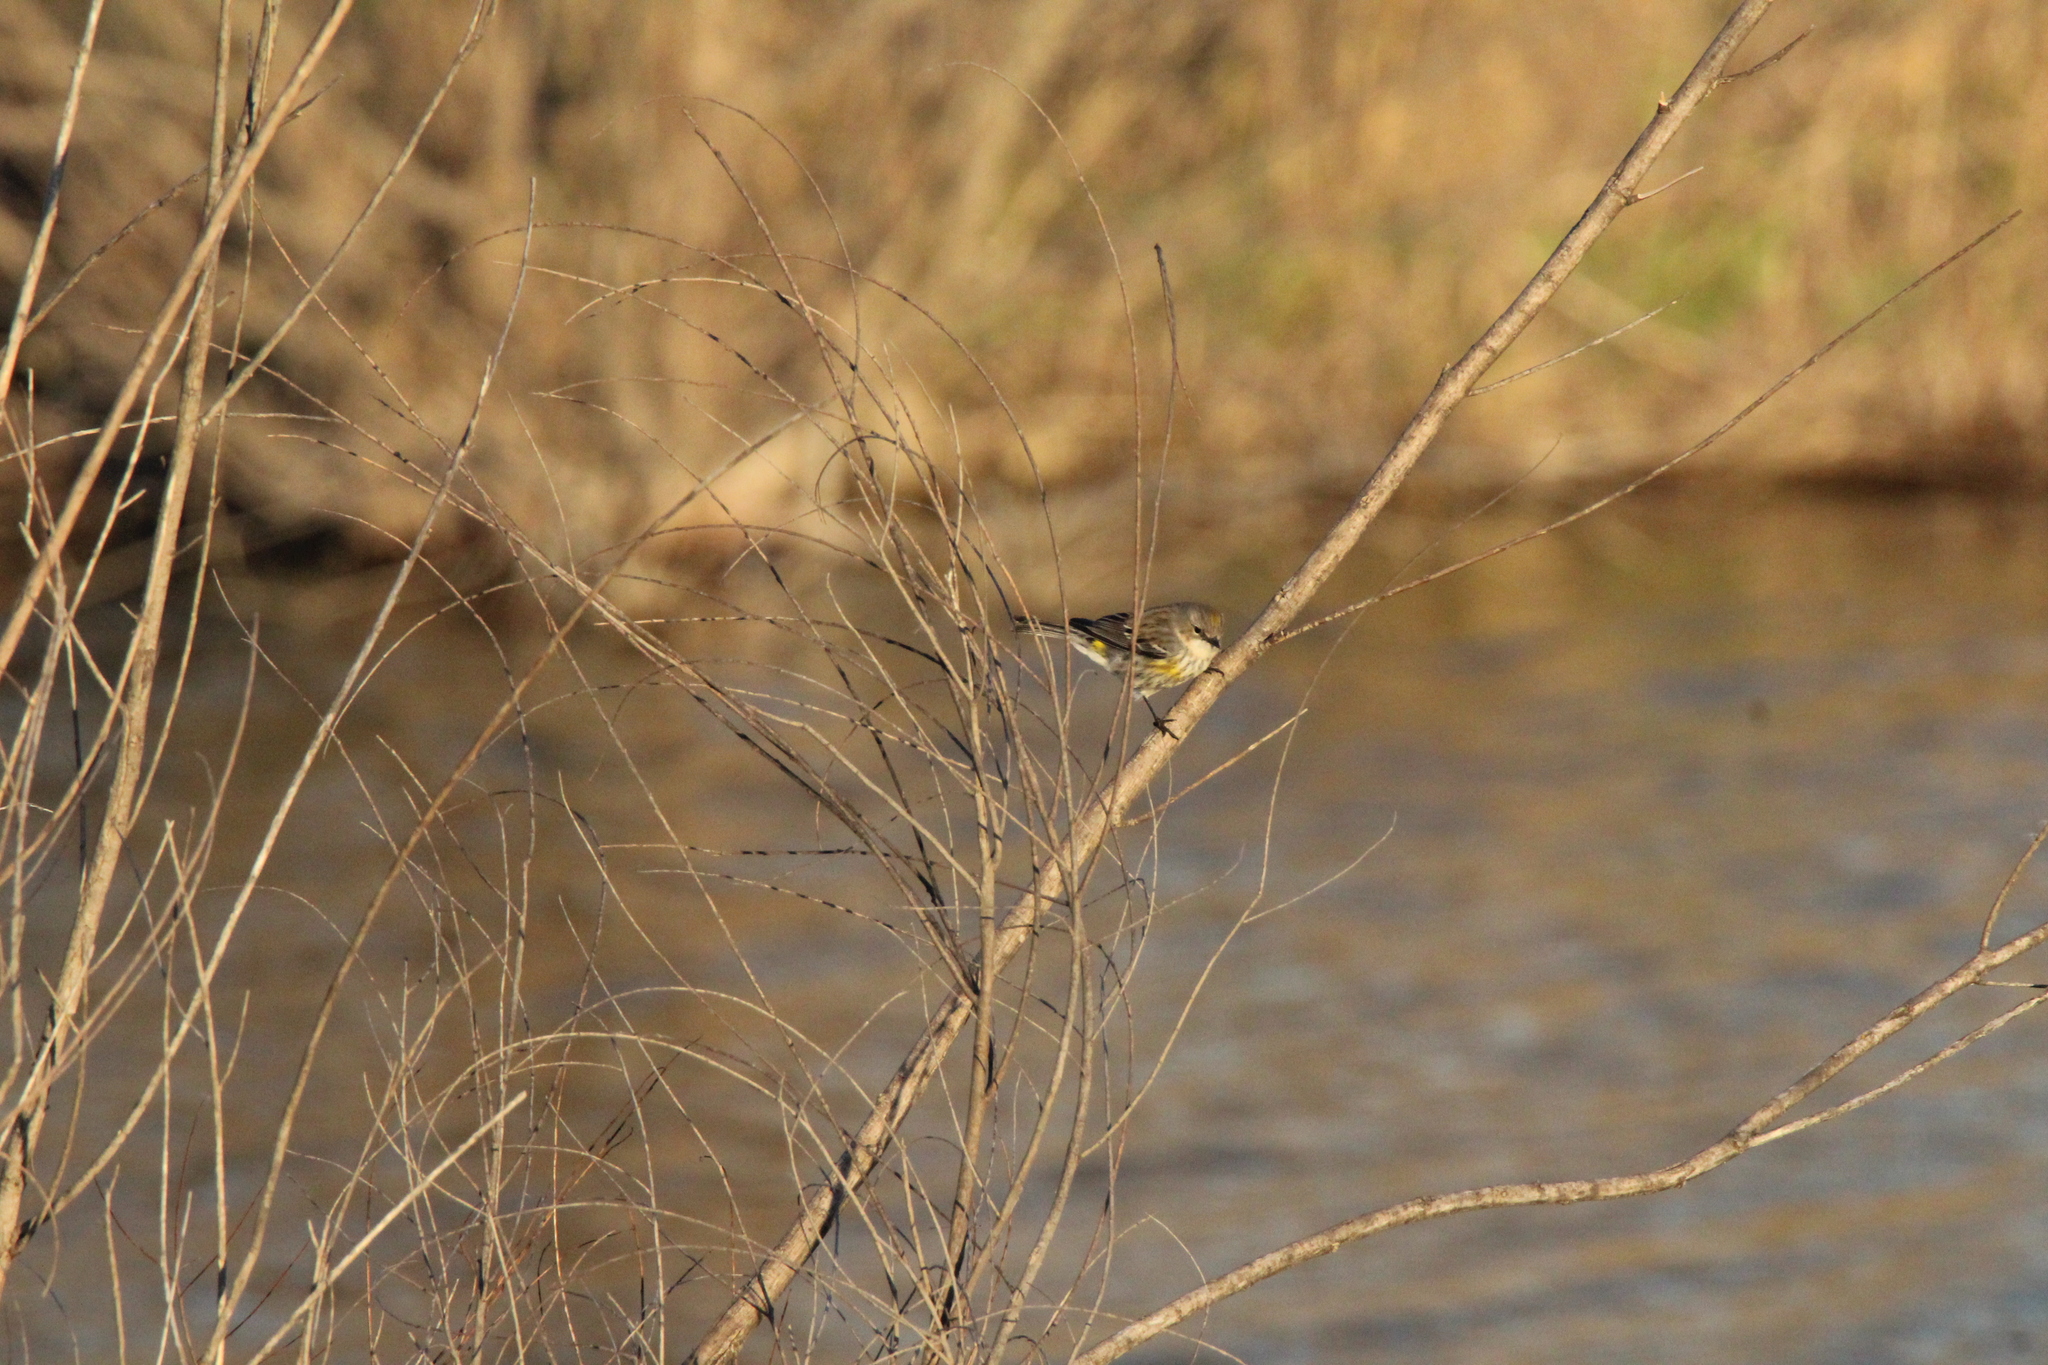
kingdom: Animalia
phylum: Chordata
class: Aves
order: Passeriformes
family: Parulidae
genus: Setophaga
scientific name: Setophaga coronata
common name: Myrtle warbler
